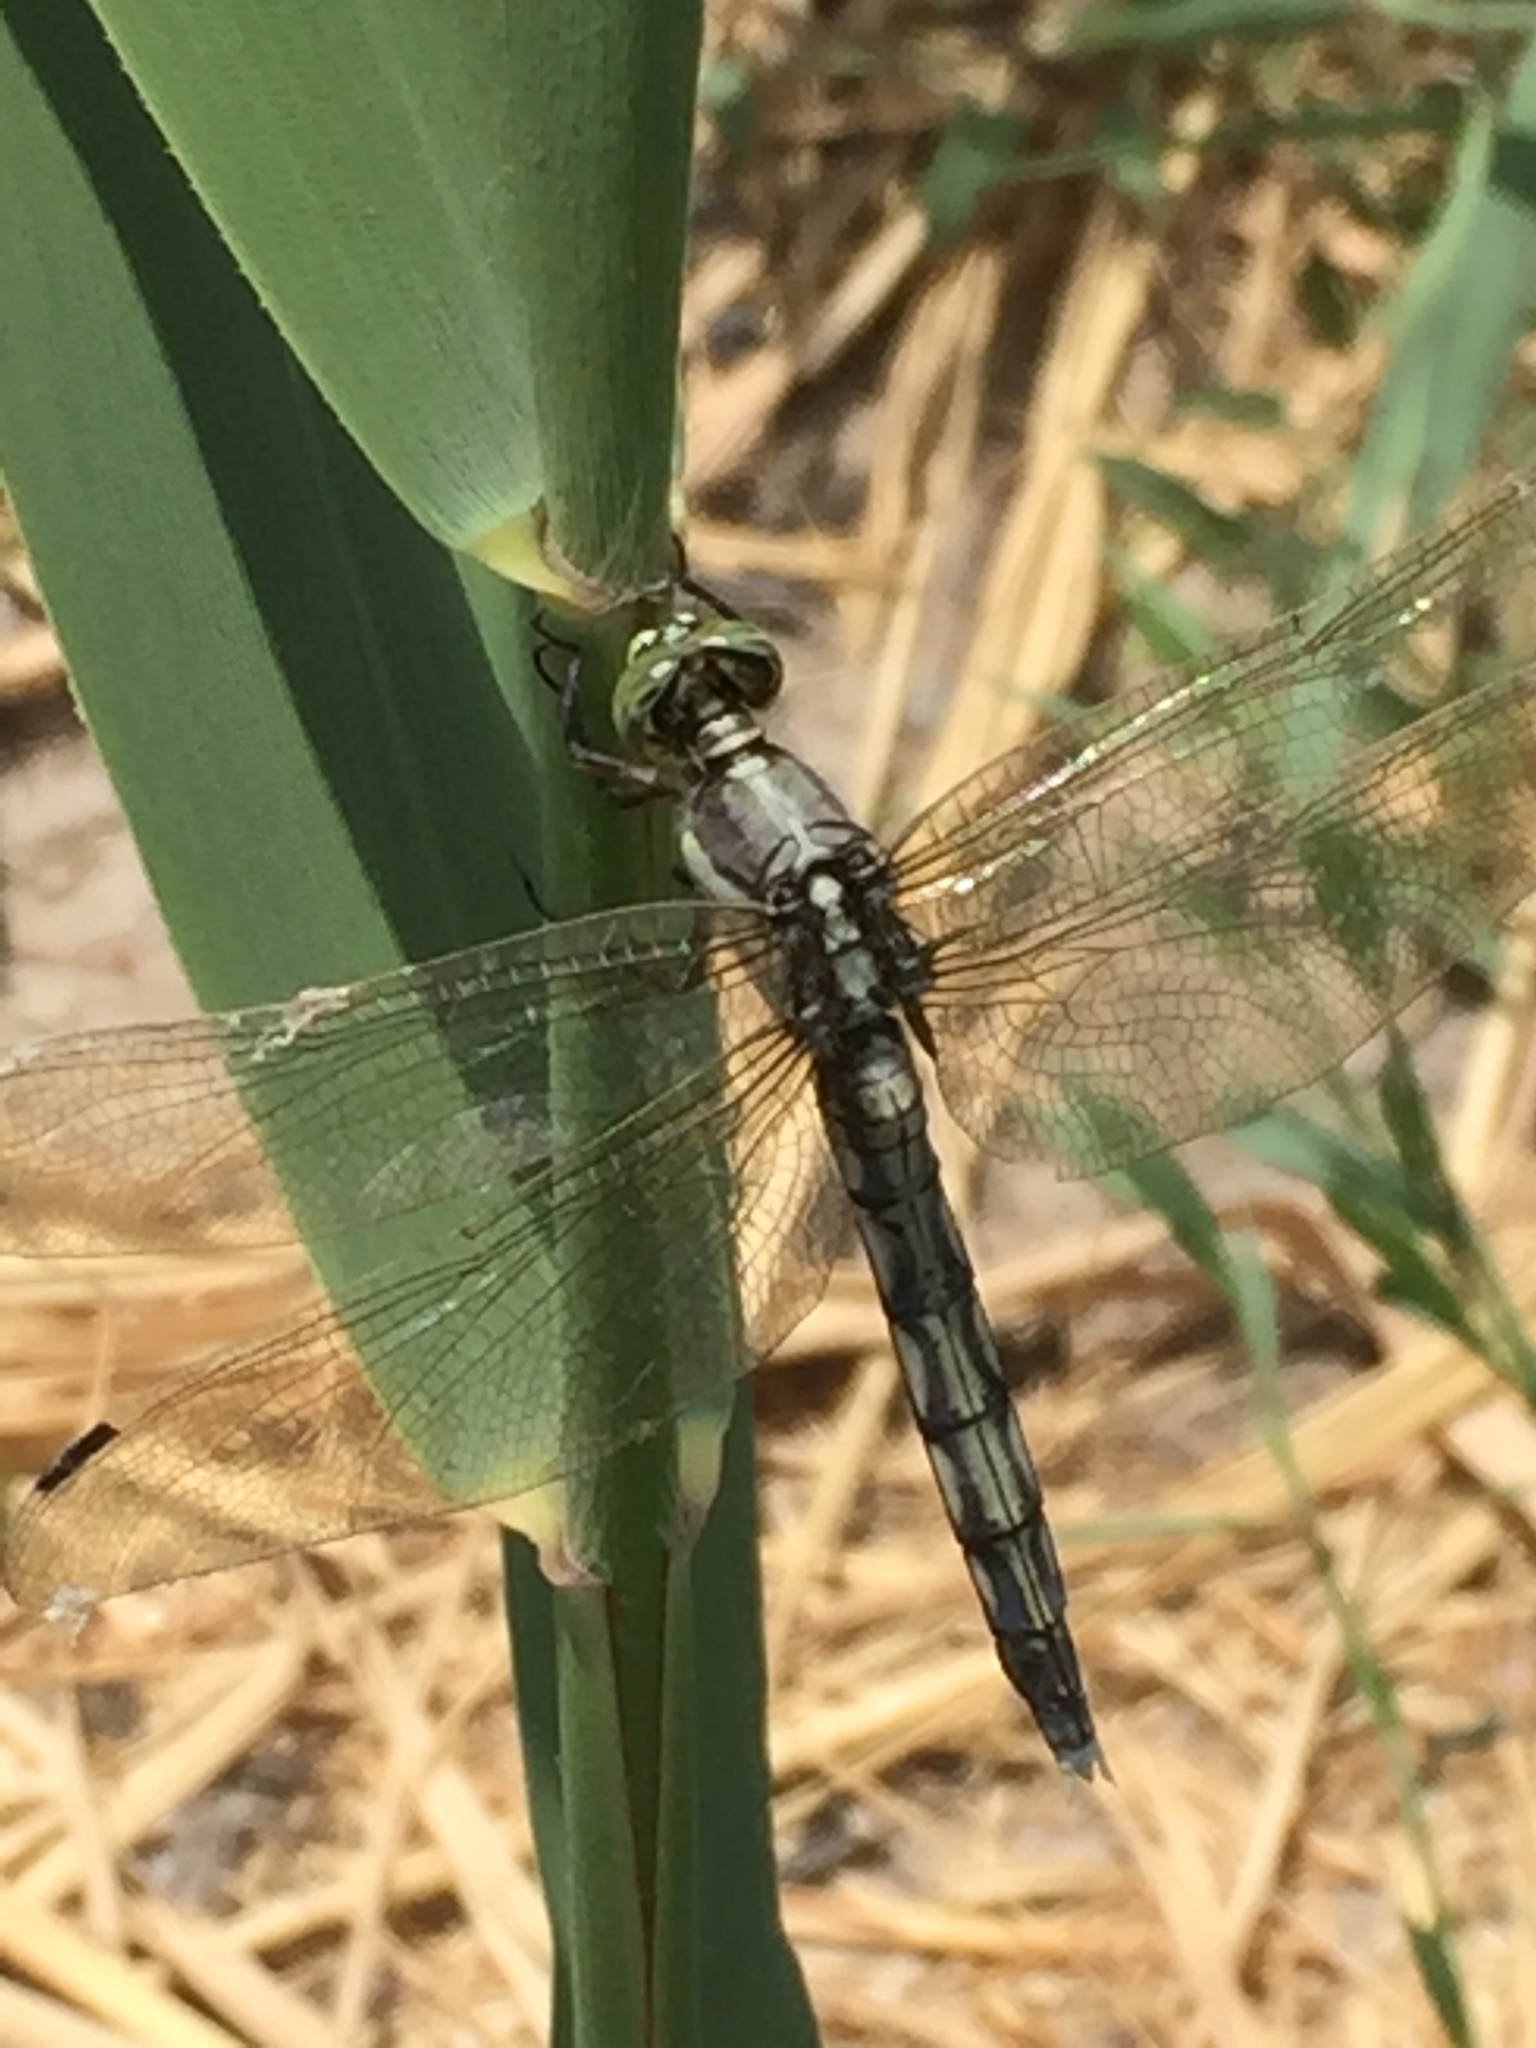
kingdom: Animalia
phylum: Arthropoda
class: Insecta
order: Odonata
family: Libellulidae
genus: Orthetrum
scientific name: Orthetrum albistylum
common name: White-tailed skimmer
